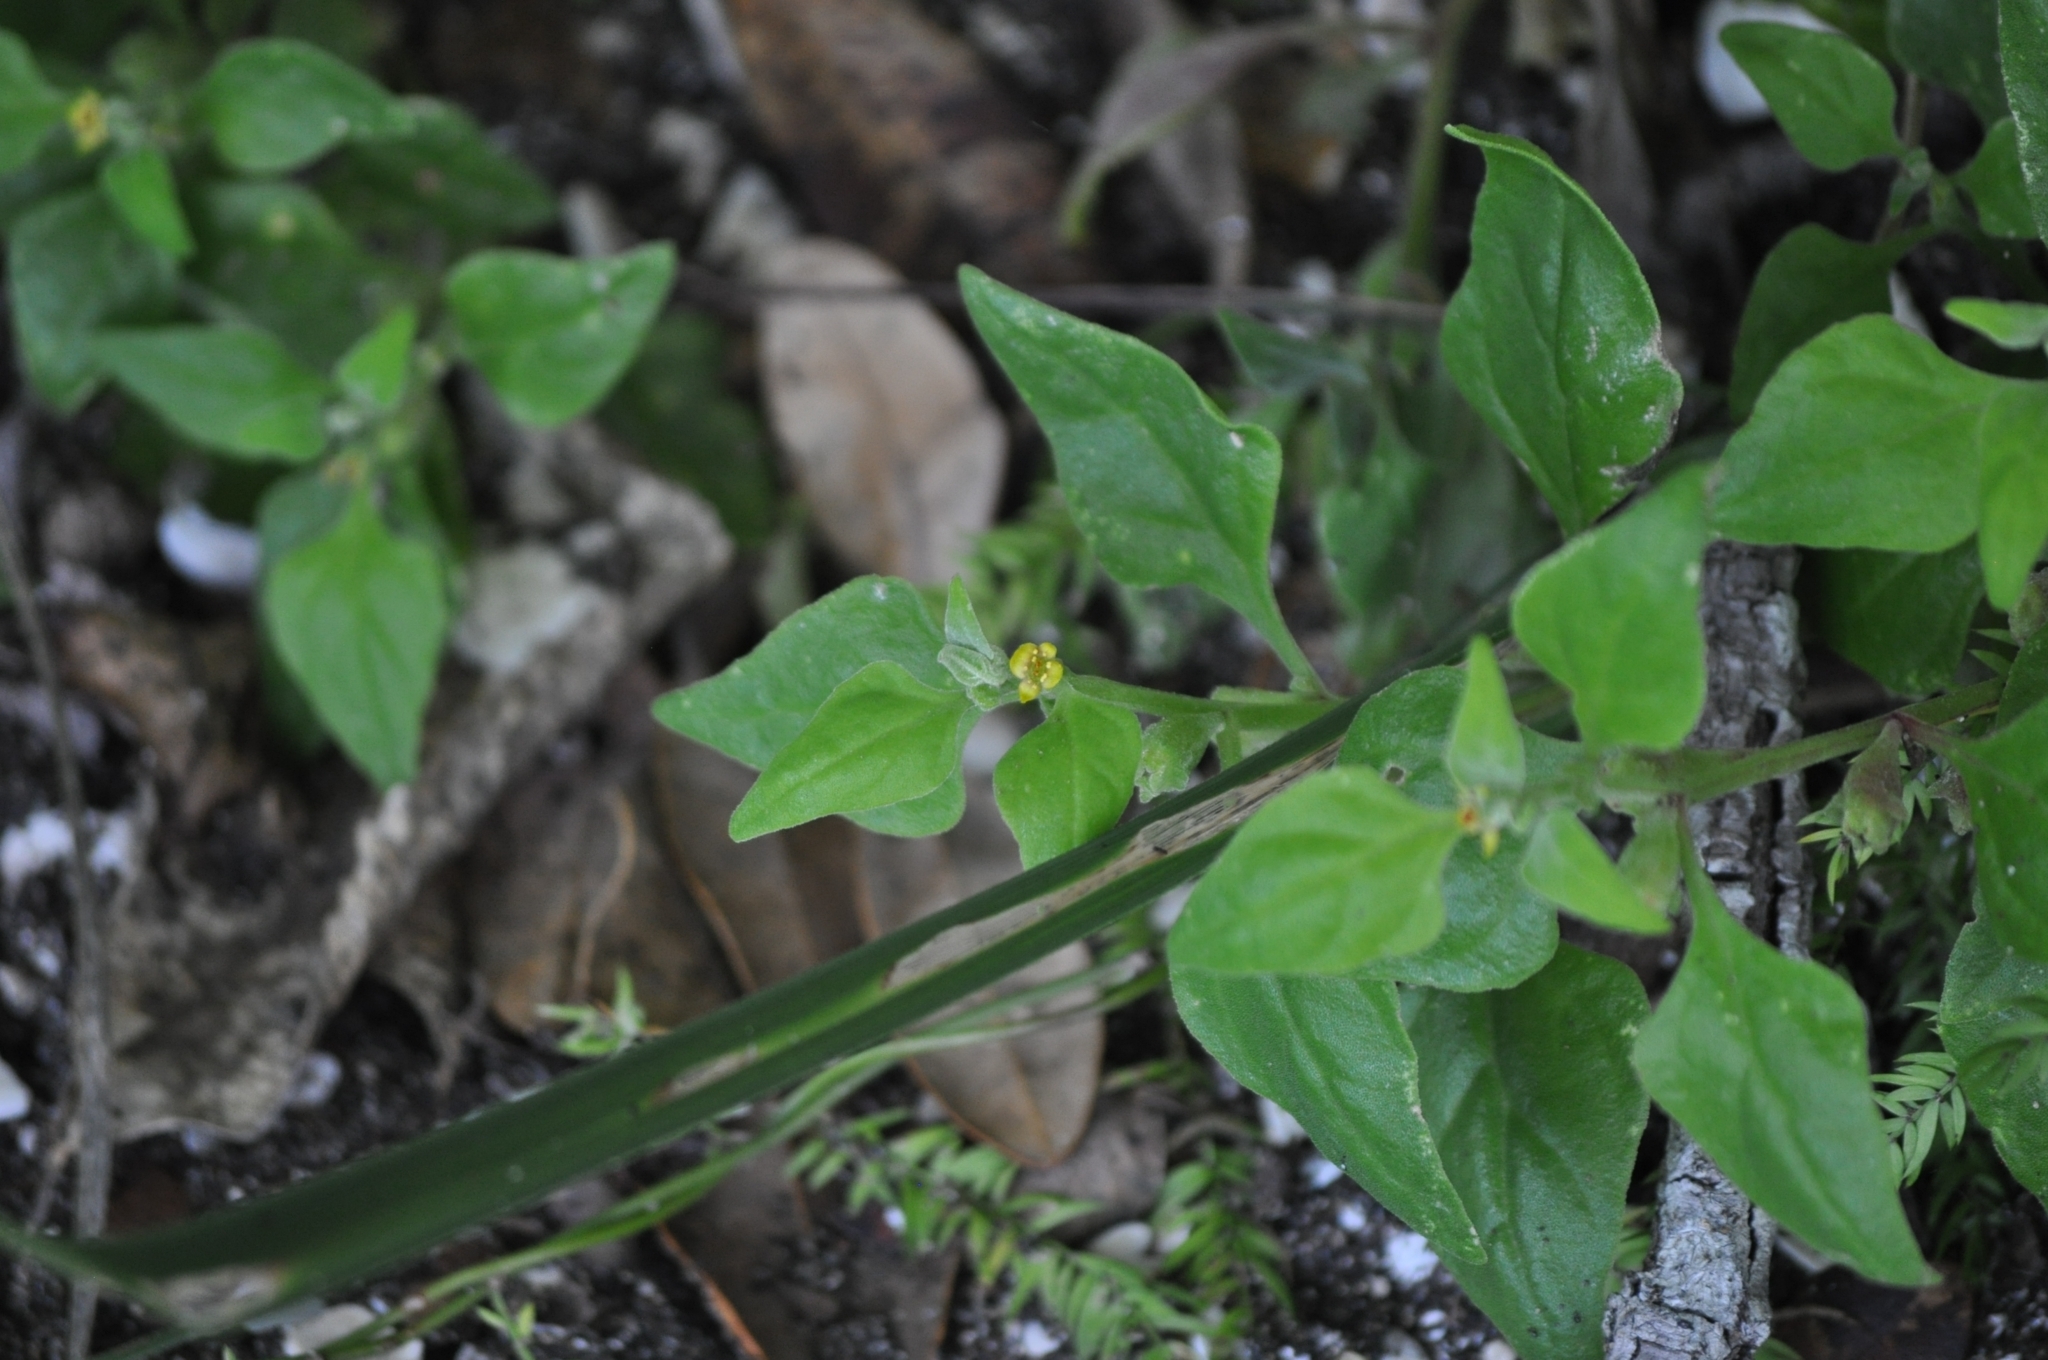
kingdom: Plantae
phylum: Tracheophyta
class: Magnoliopsida
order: Caryophyllales
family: Aizoaceae
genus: Tetragonia
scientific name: Tetragonia tetragonoides
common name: New zealand-spinach
